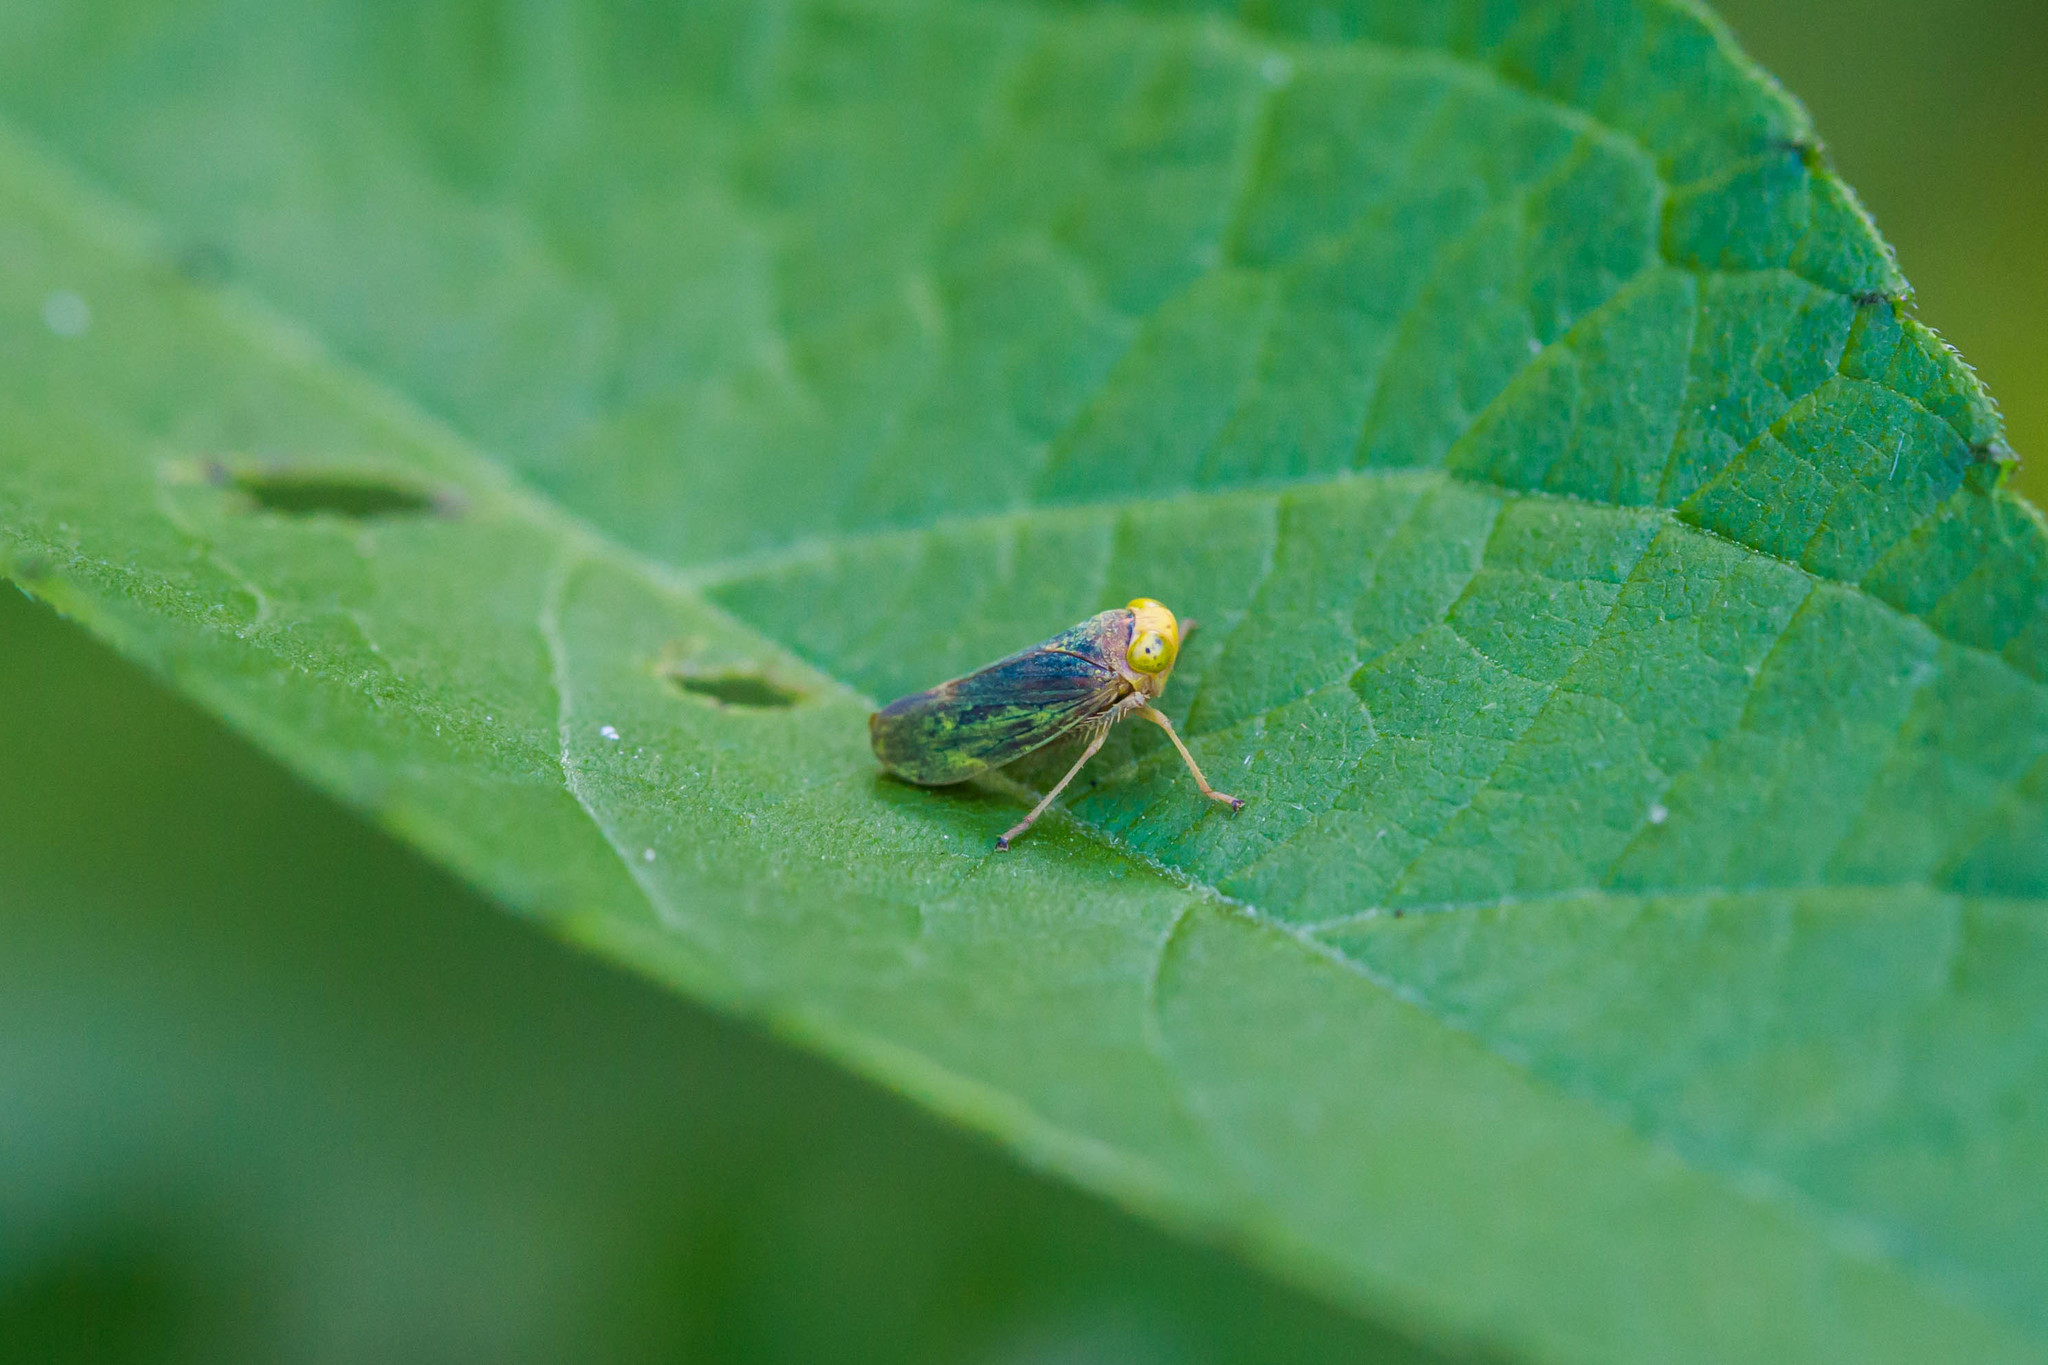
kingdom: Animalia
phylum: Arthropoda
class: Insecta
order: Hemiptera
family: Cicadellidae
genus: Jikradia
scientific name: Jikradia olitoria
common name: Coppery leafhopper
